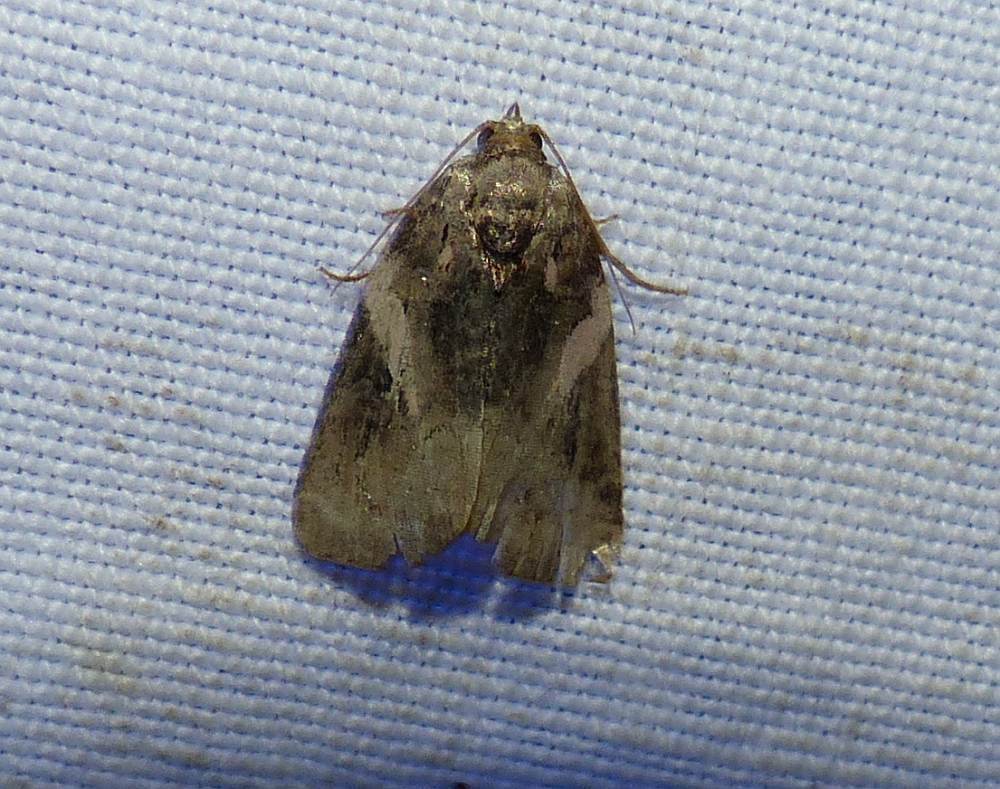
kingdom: Animalia
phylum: Arthropoda
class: Insecta
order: Lepidoptera
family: Noctuidae
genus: Pseudeustrotia
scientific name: Pseudeustrotia carneola
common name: Pink-barred lithacodia moth
